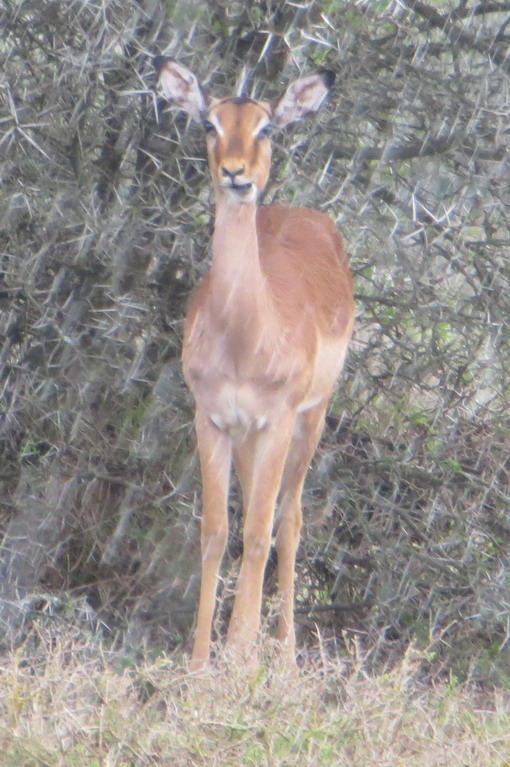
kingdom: Animalia
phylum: Chordata
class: Mammalia
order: Artiodactyla
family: Bovidae
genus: Aepyceros
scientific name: Aepyceros melampus
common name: Impala
